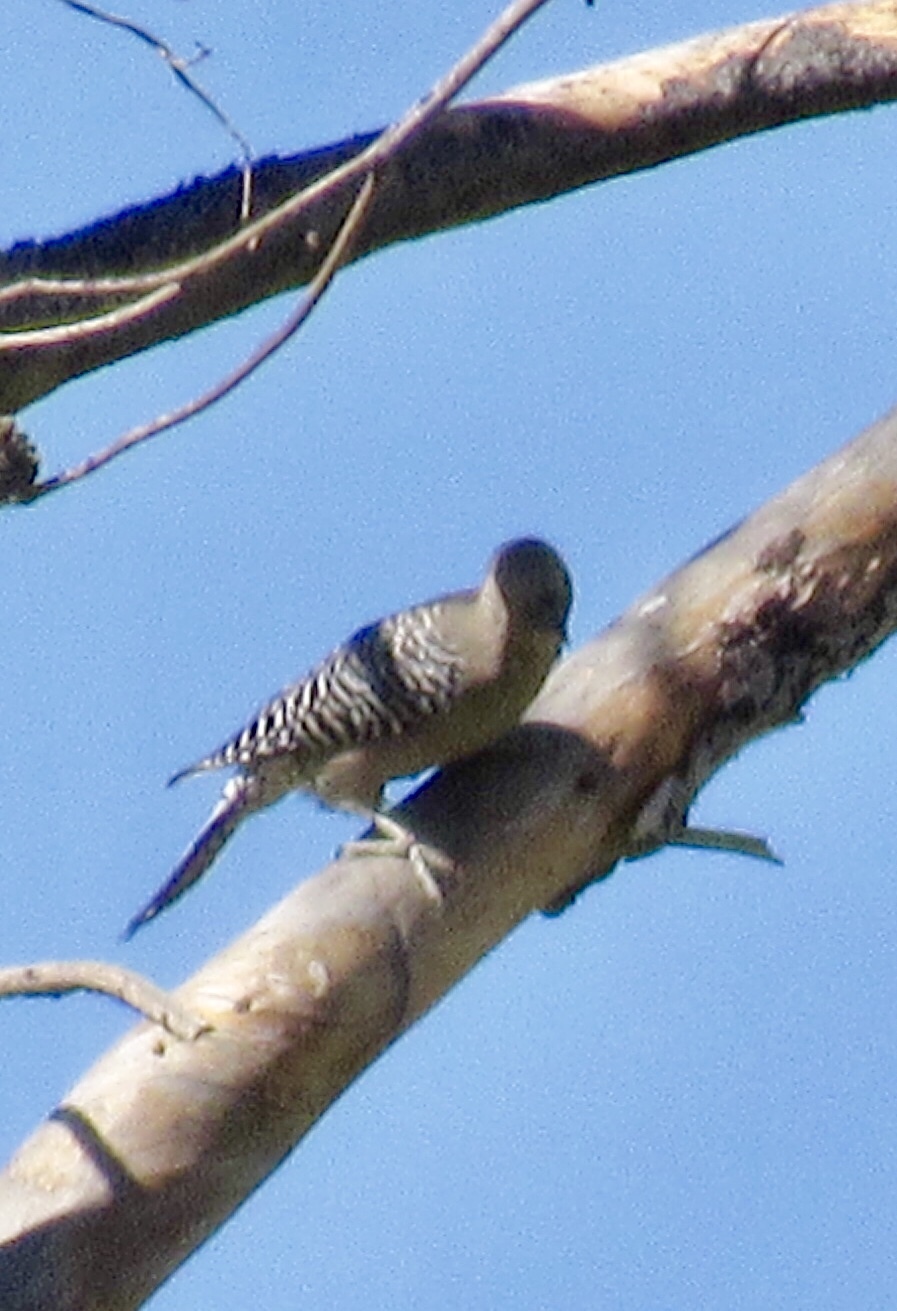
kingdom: Animalia
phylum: Chordata
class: Aves
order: Piciformes
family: Picidae
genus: Melanerpes
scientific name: Melanerpes uropygialis
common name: Gila woodpecker
